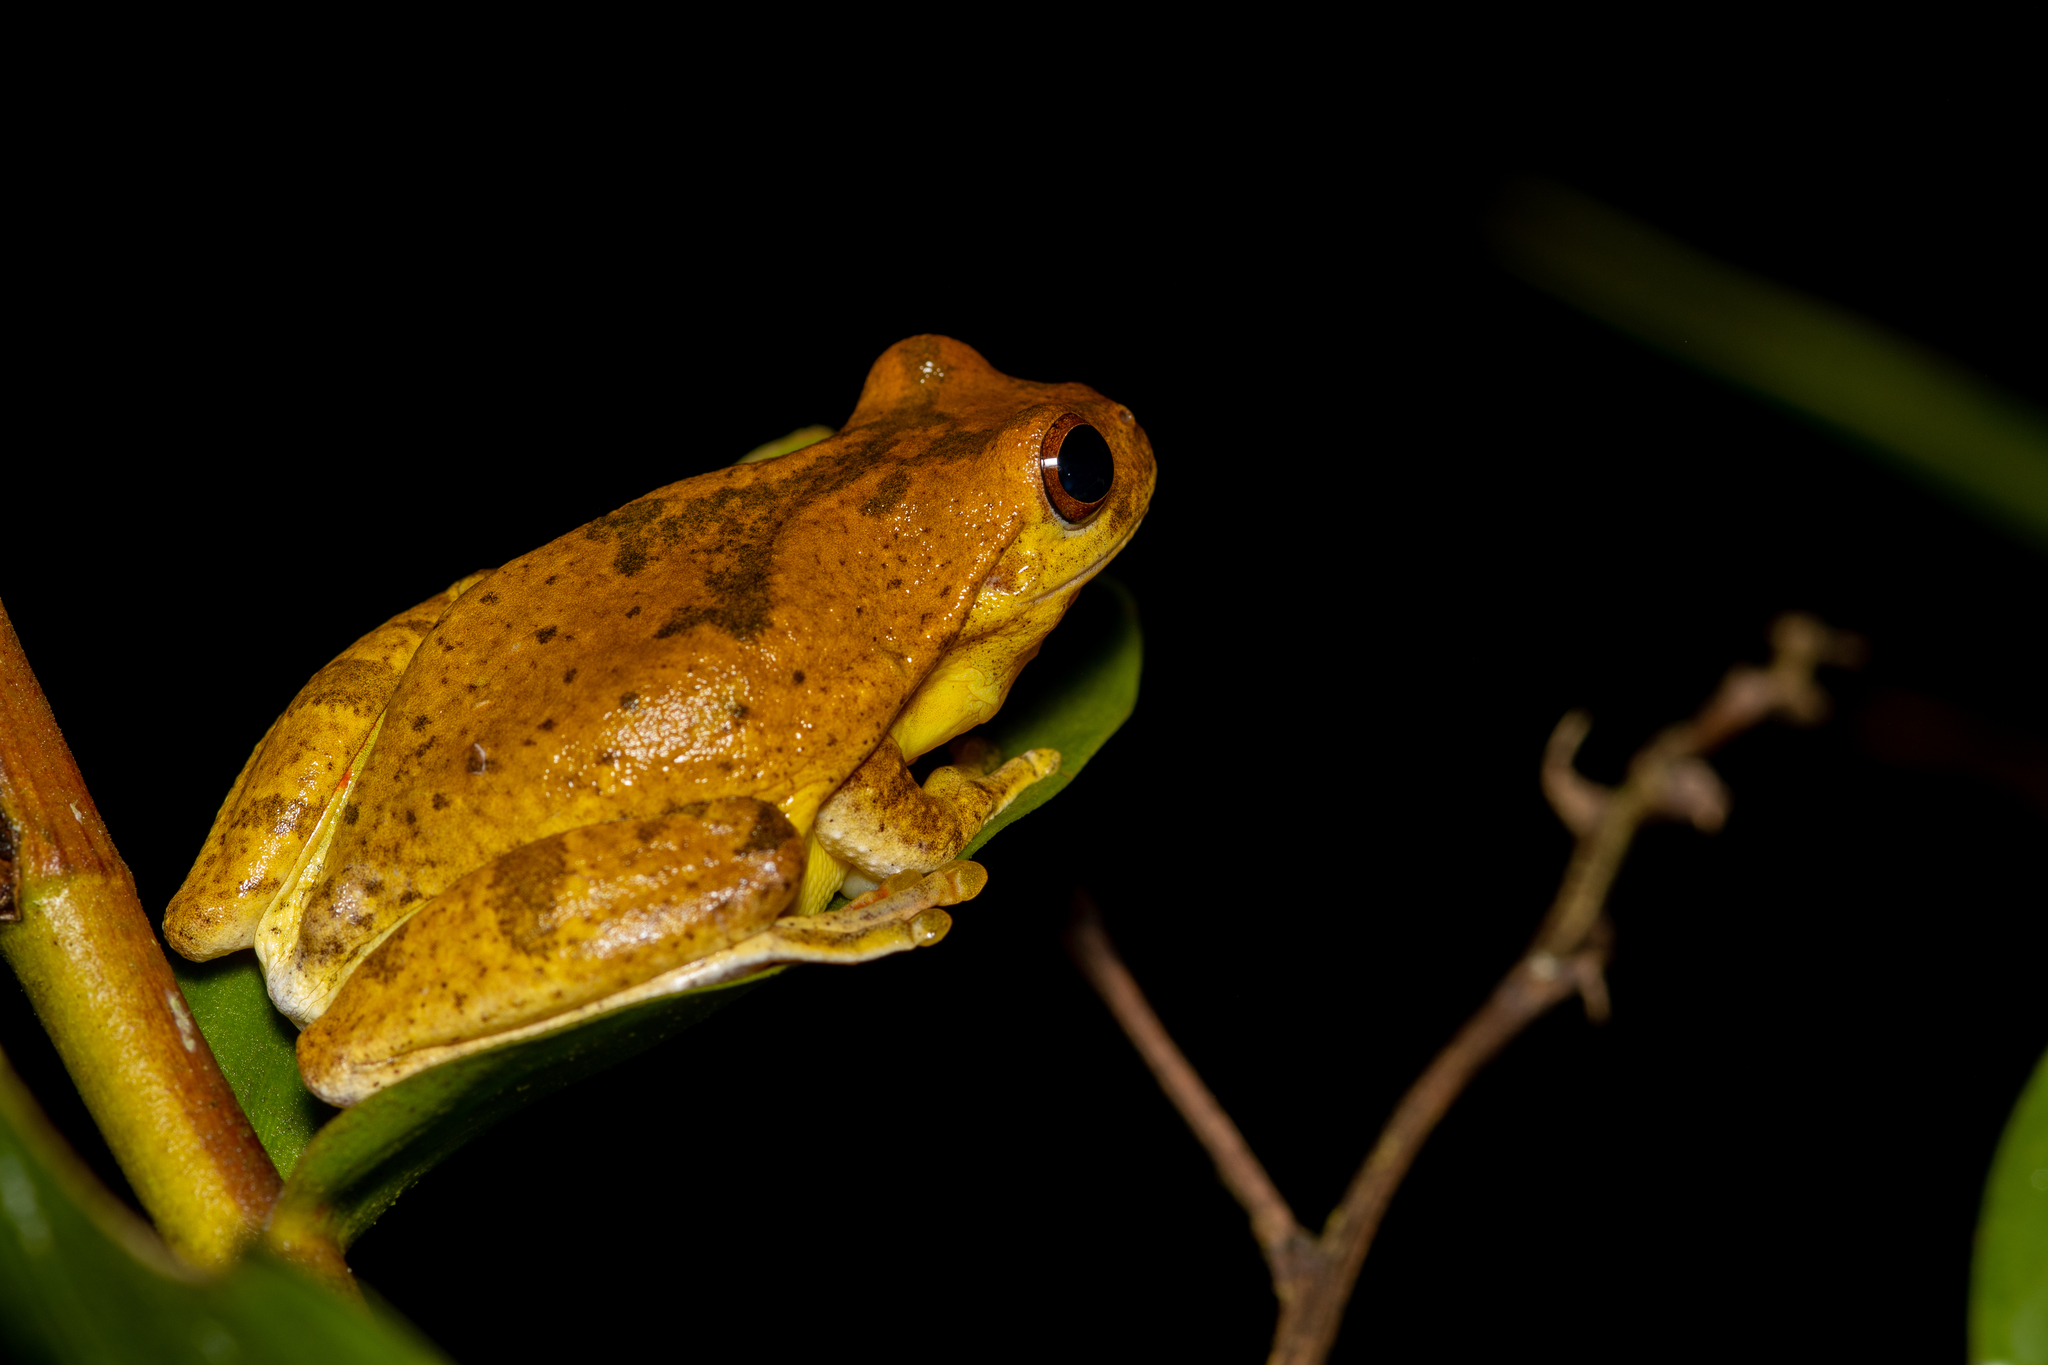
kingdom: Animalia
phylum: Chordata
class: Amphibia
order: Anura
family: Hylidae
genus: Tlalocohyla
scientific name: Tlalocohyla loquax
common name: Loquacious treefrog
